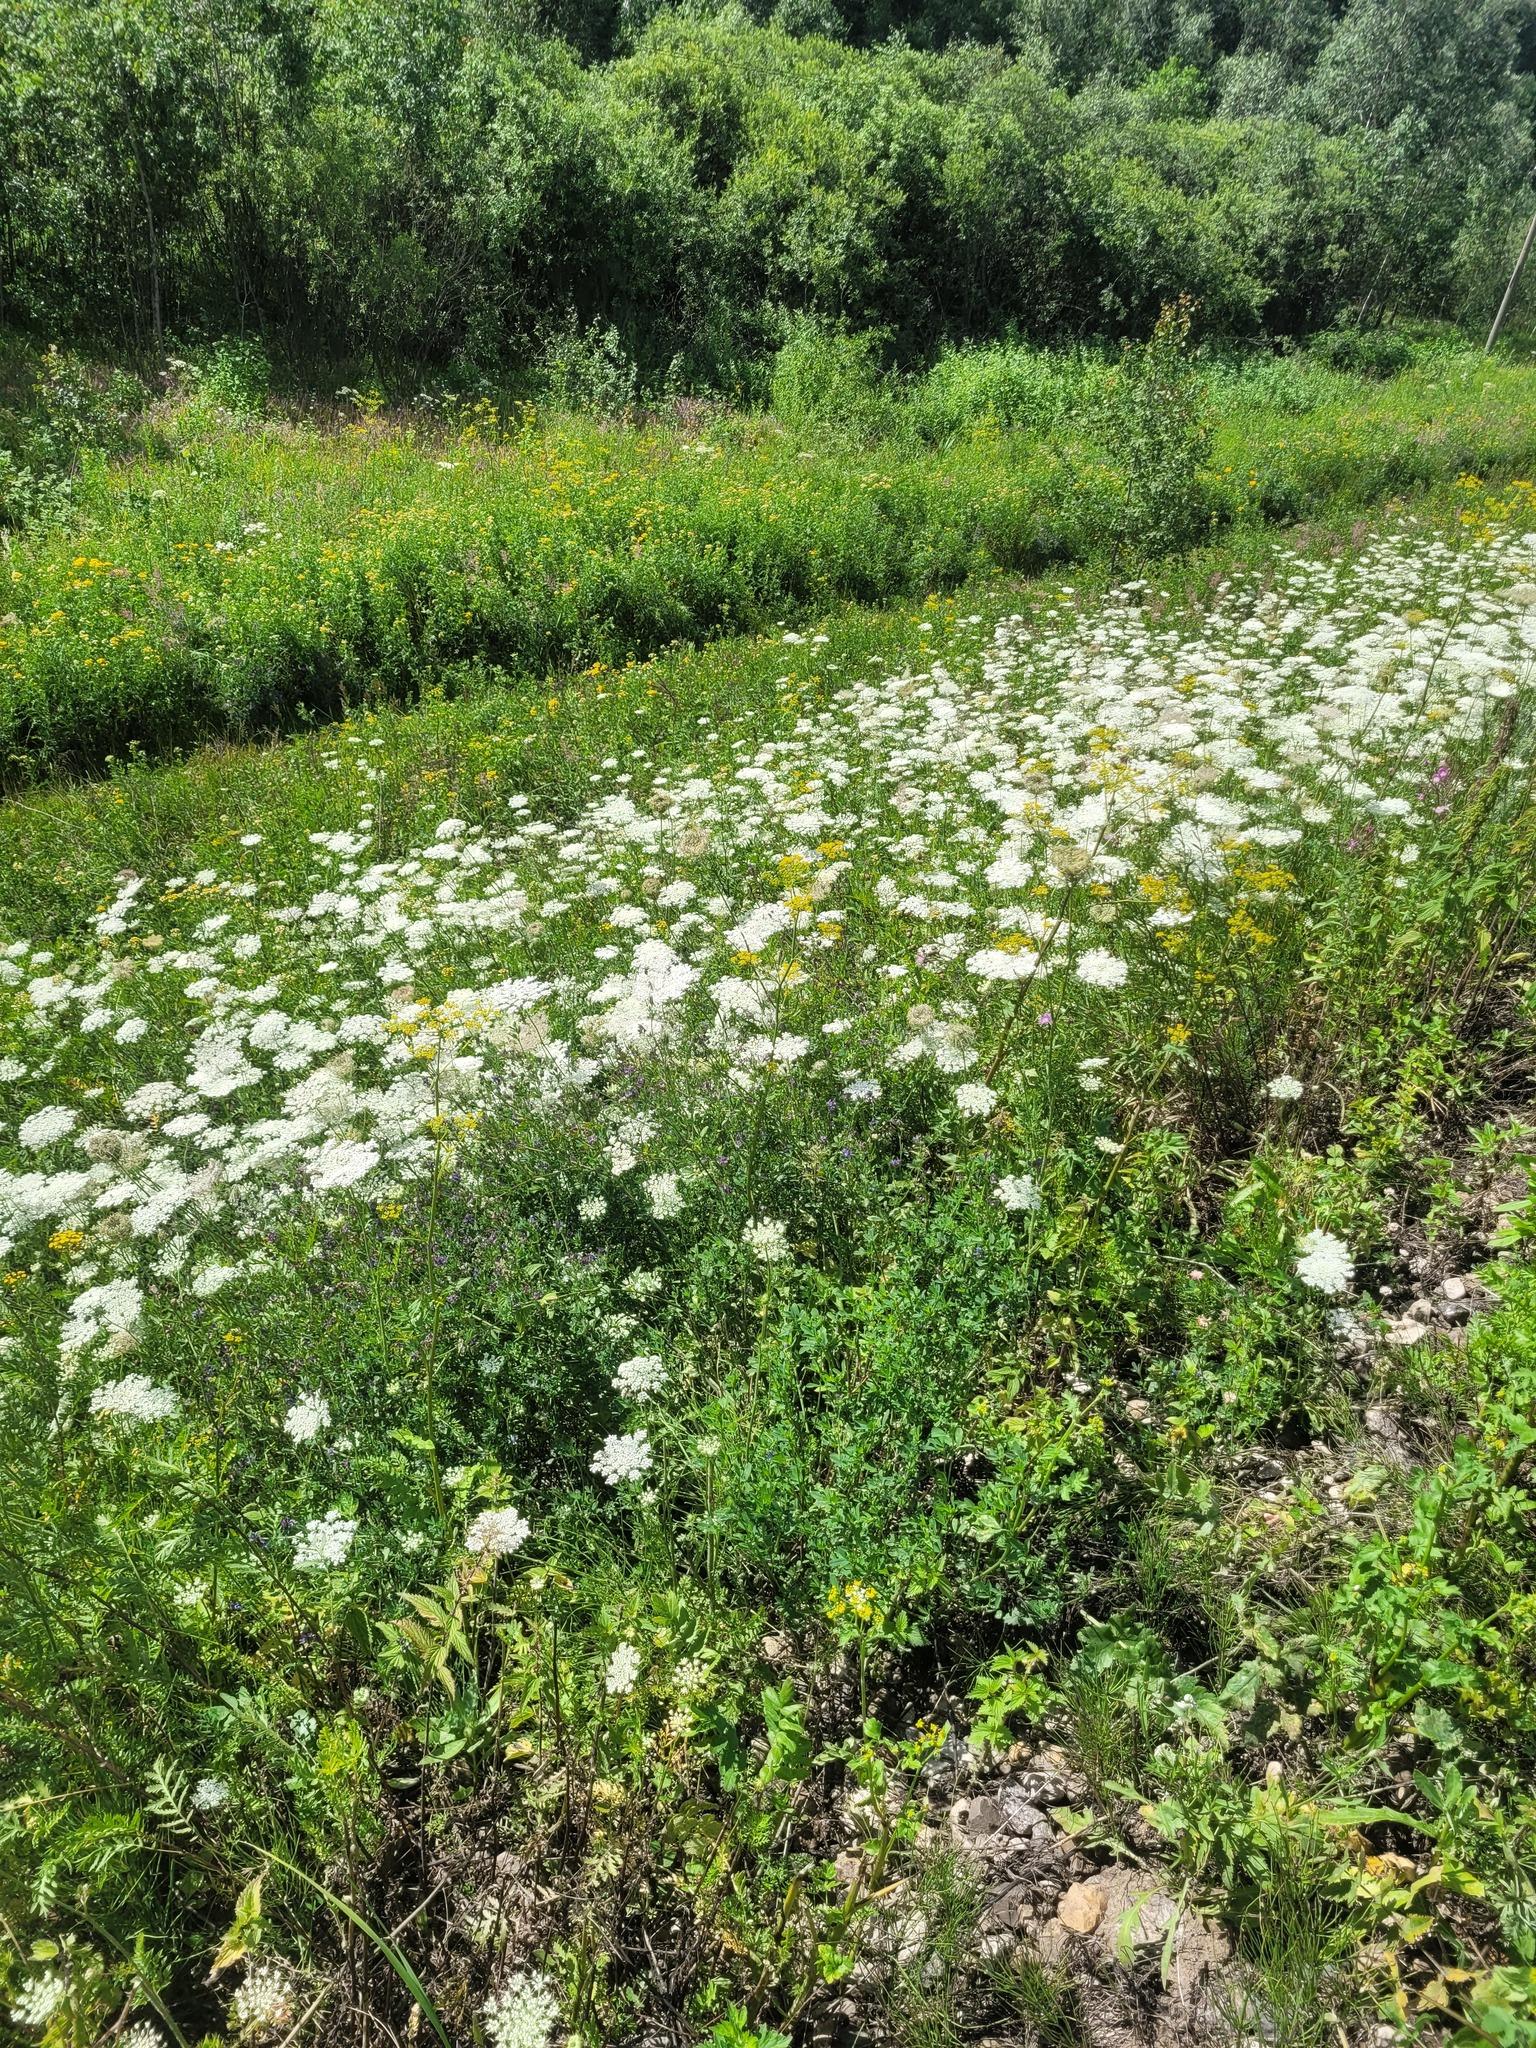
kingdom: Plantae
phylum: Tracheophyta
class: Magnoliopsida
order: Apiales
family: Apiaceae
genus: Daucus
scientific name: Daucus carota
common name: Wild carrot
